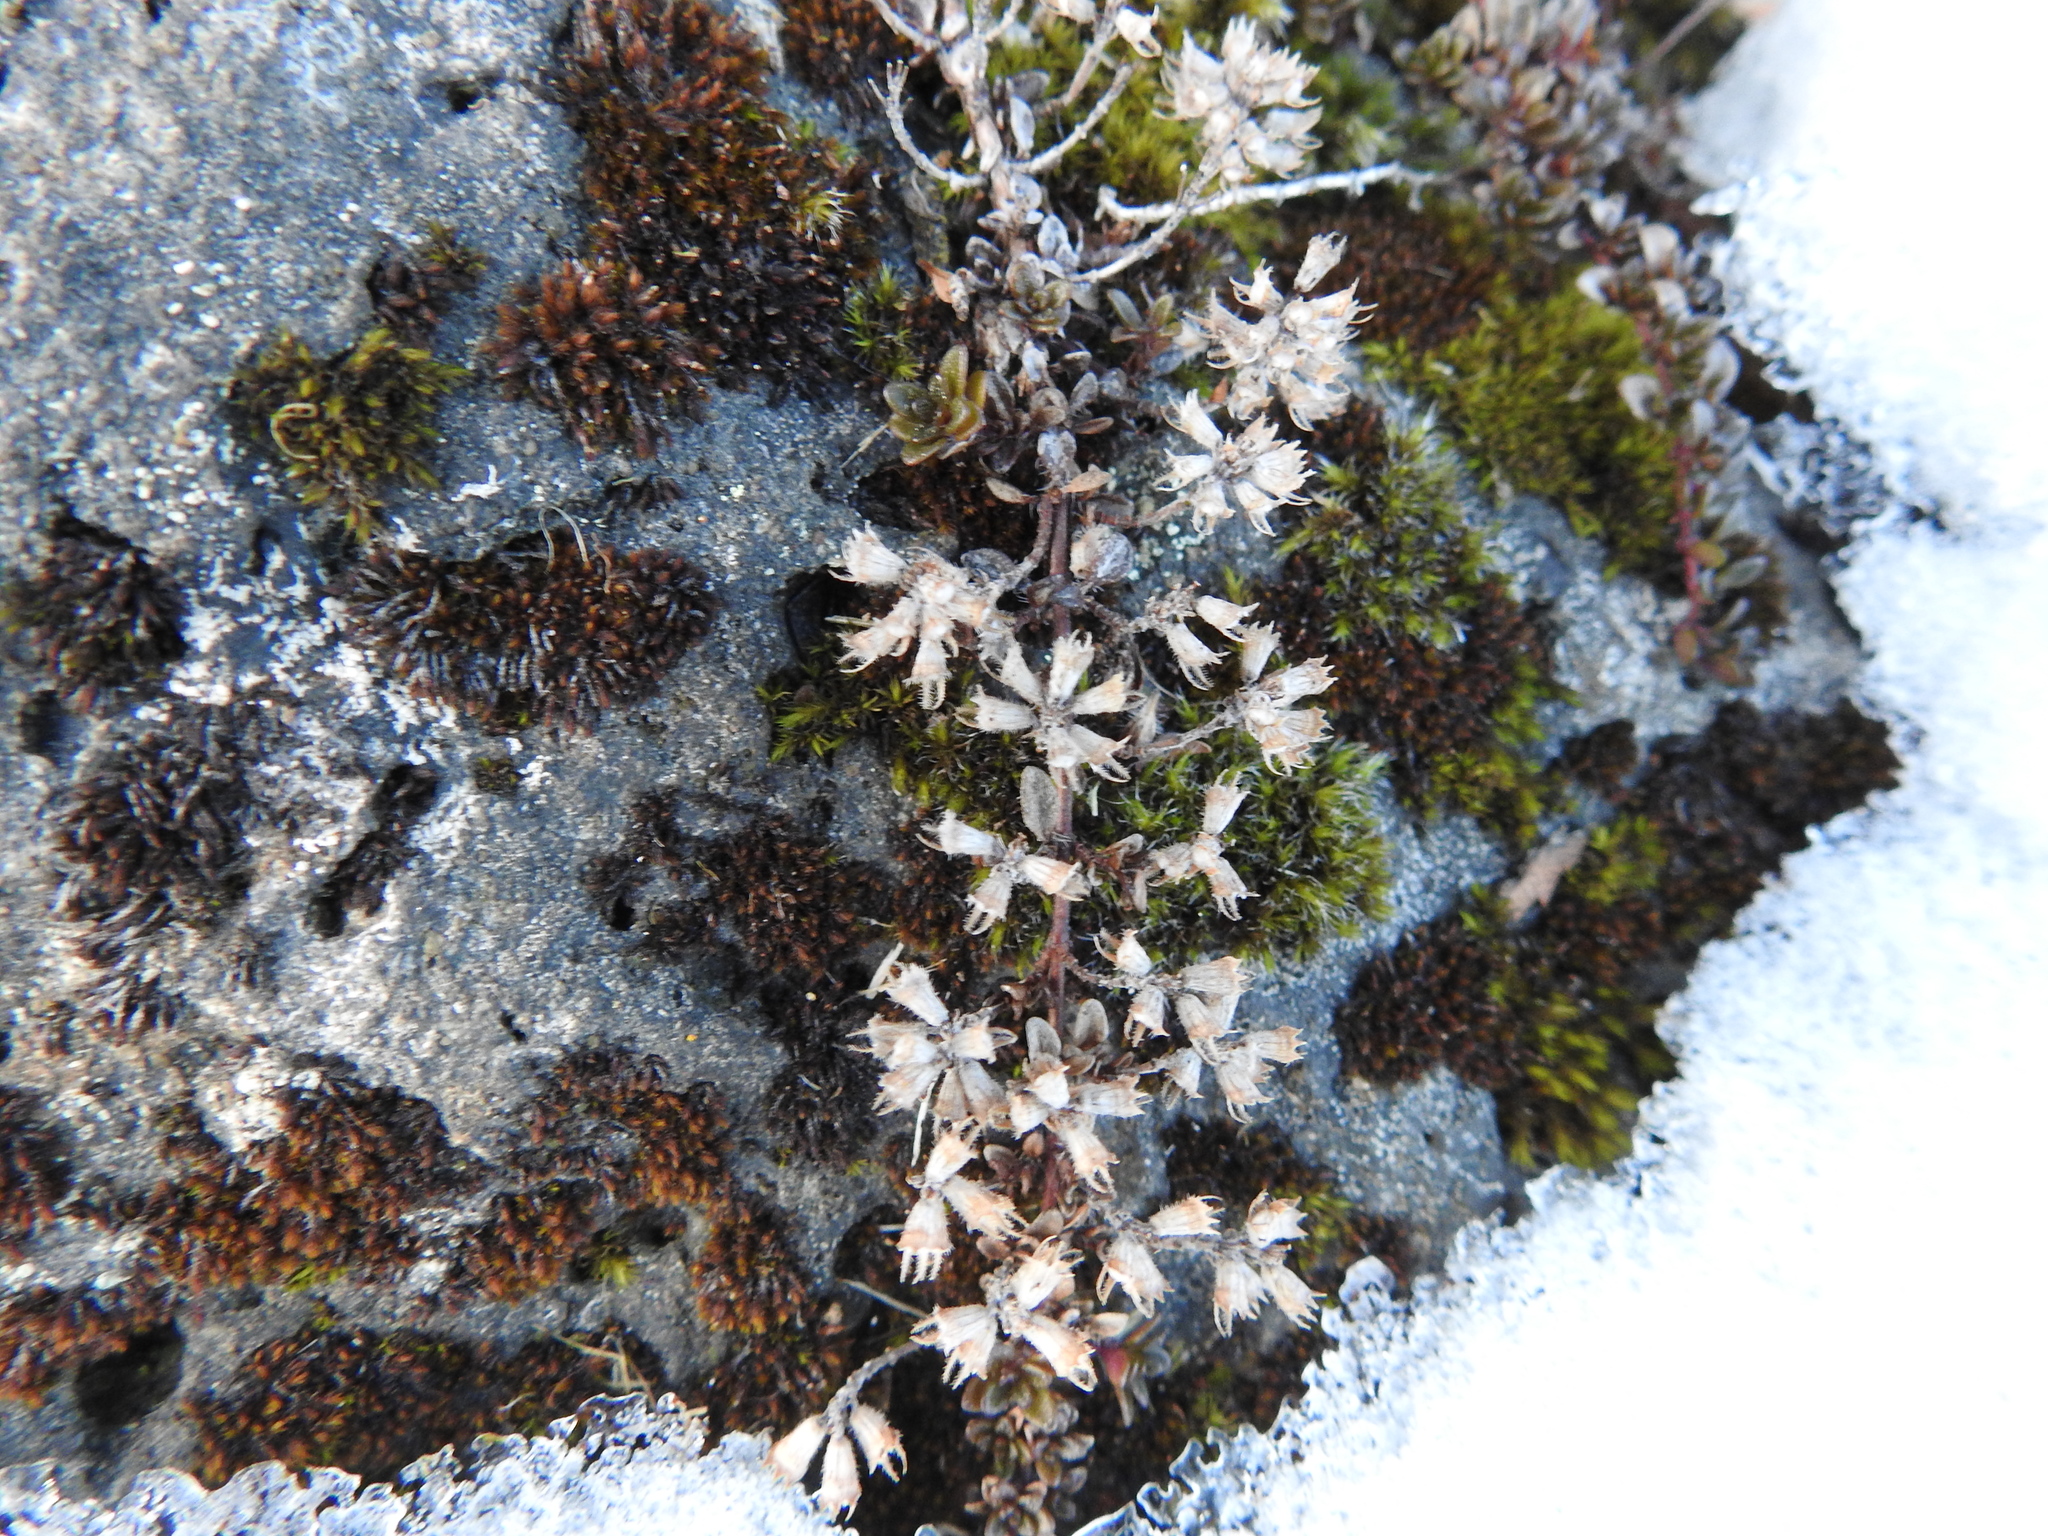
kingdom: Plantae
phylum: Tracheophyta
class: Magnoliopsida
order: Lamiales
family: Lamiaceae
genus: Thymus
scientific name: Thymus praecox
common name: Wild thyme
